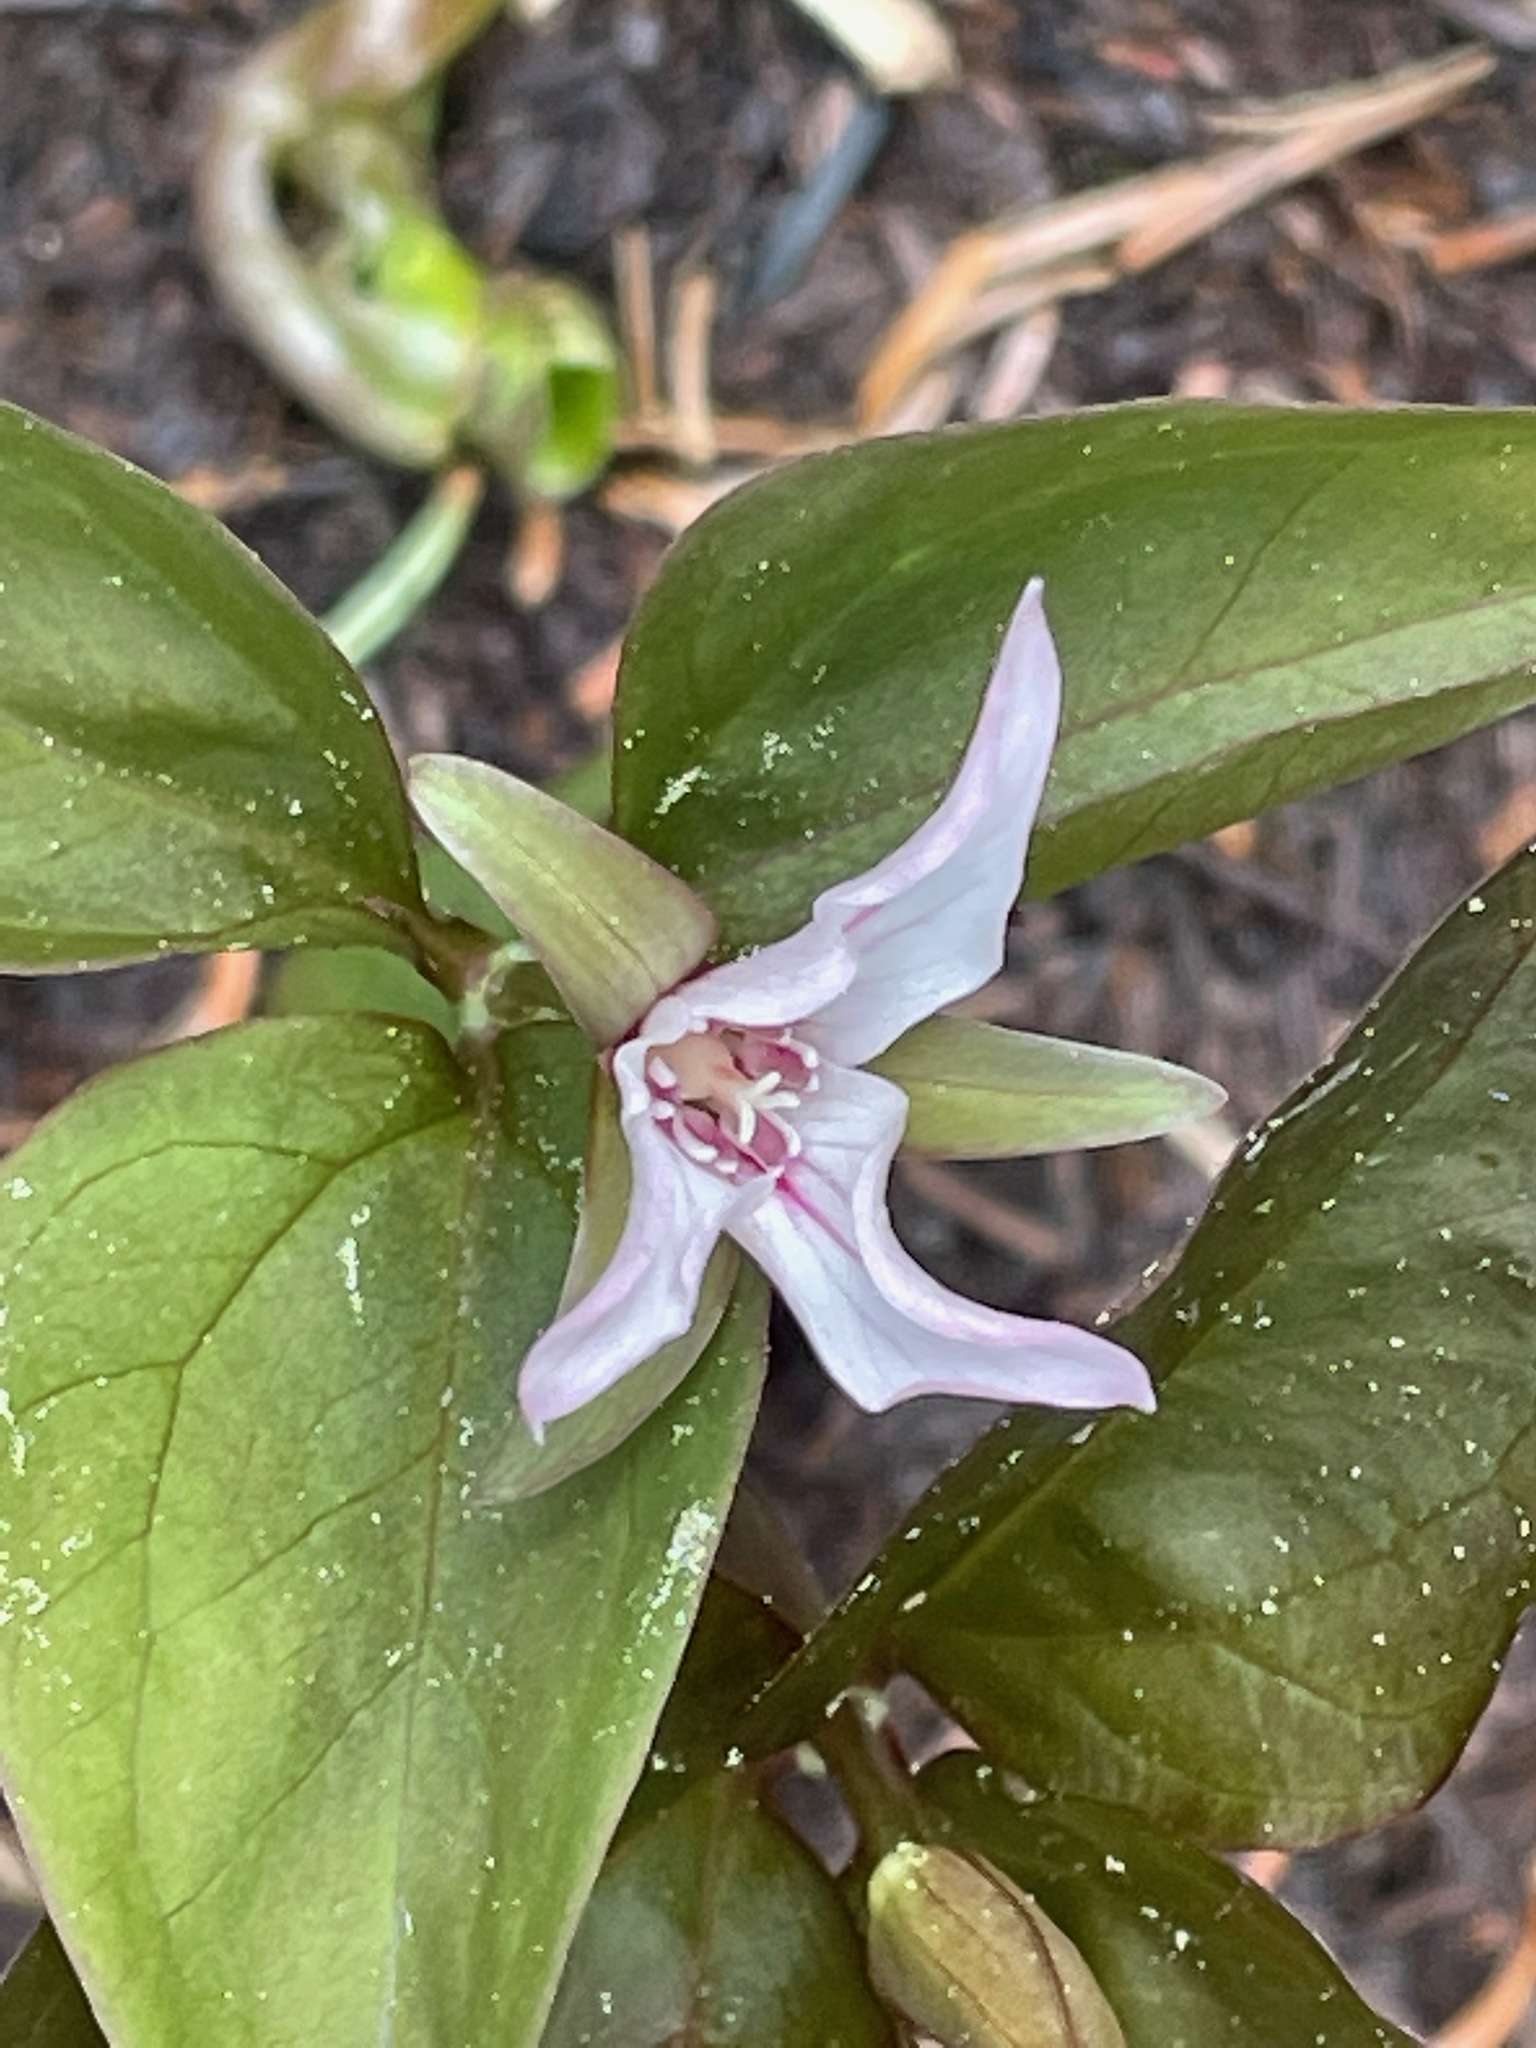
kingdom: Plantae
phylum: Tracheophyta
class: Liliopsida
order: Liliales
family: Melanthiaceae
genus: Trillium
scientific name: Trillium undulatum
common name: Paint trillium
